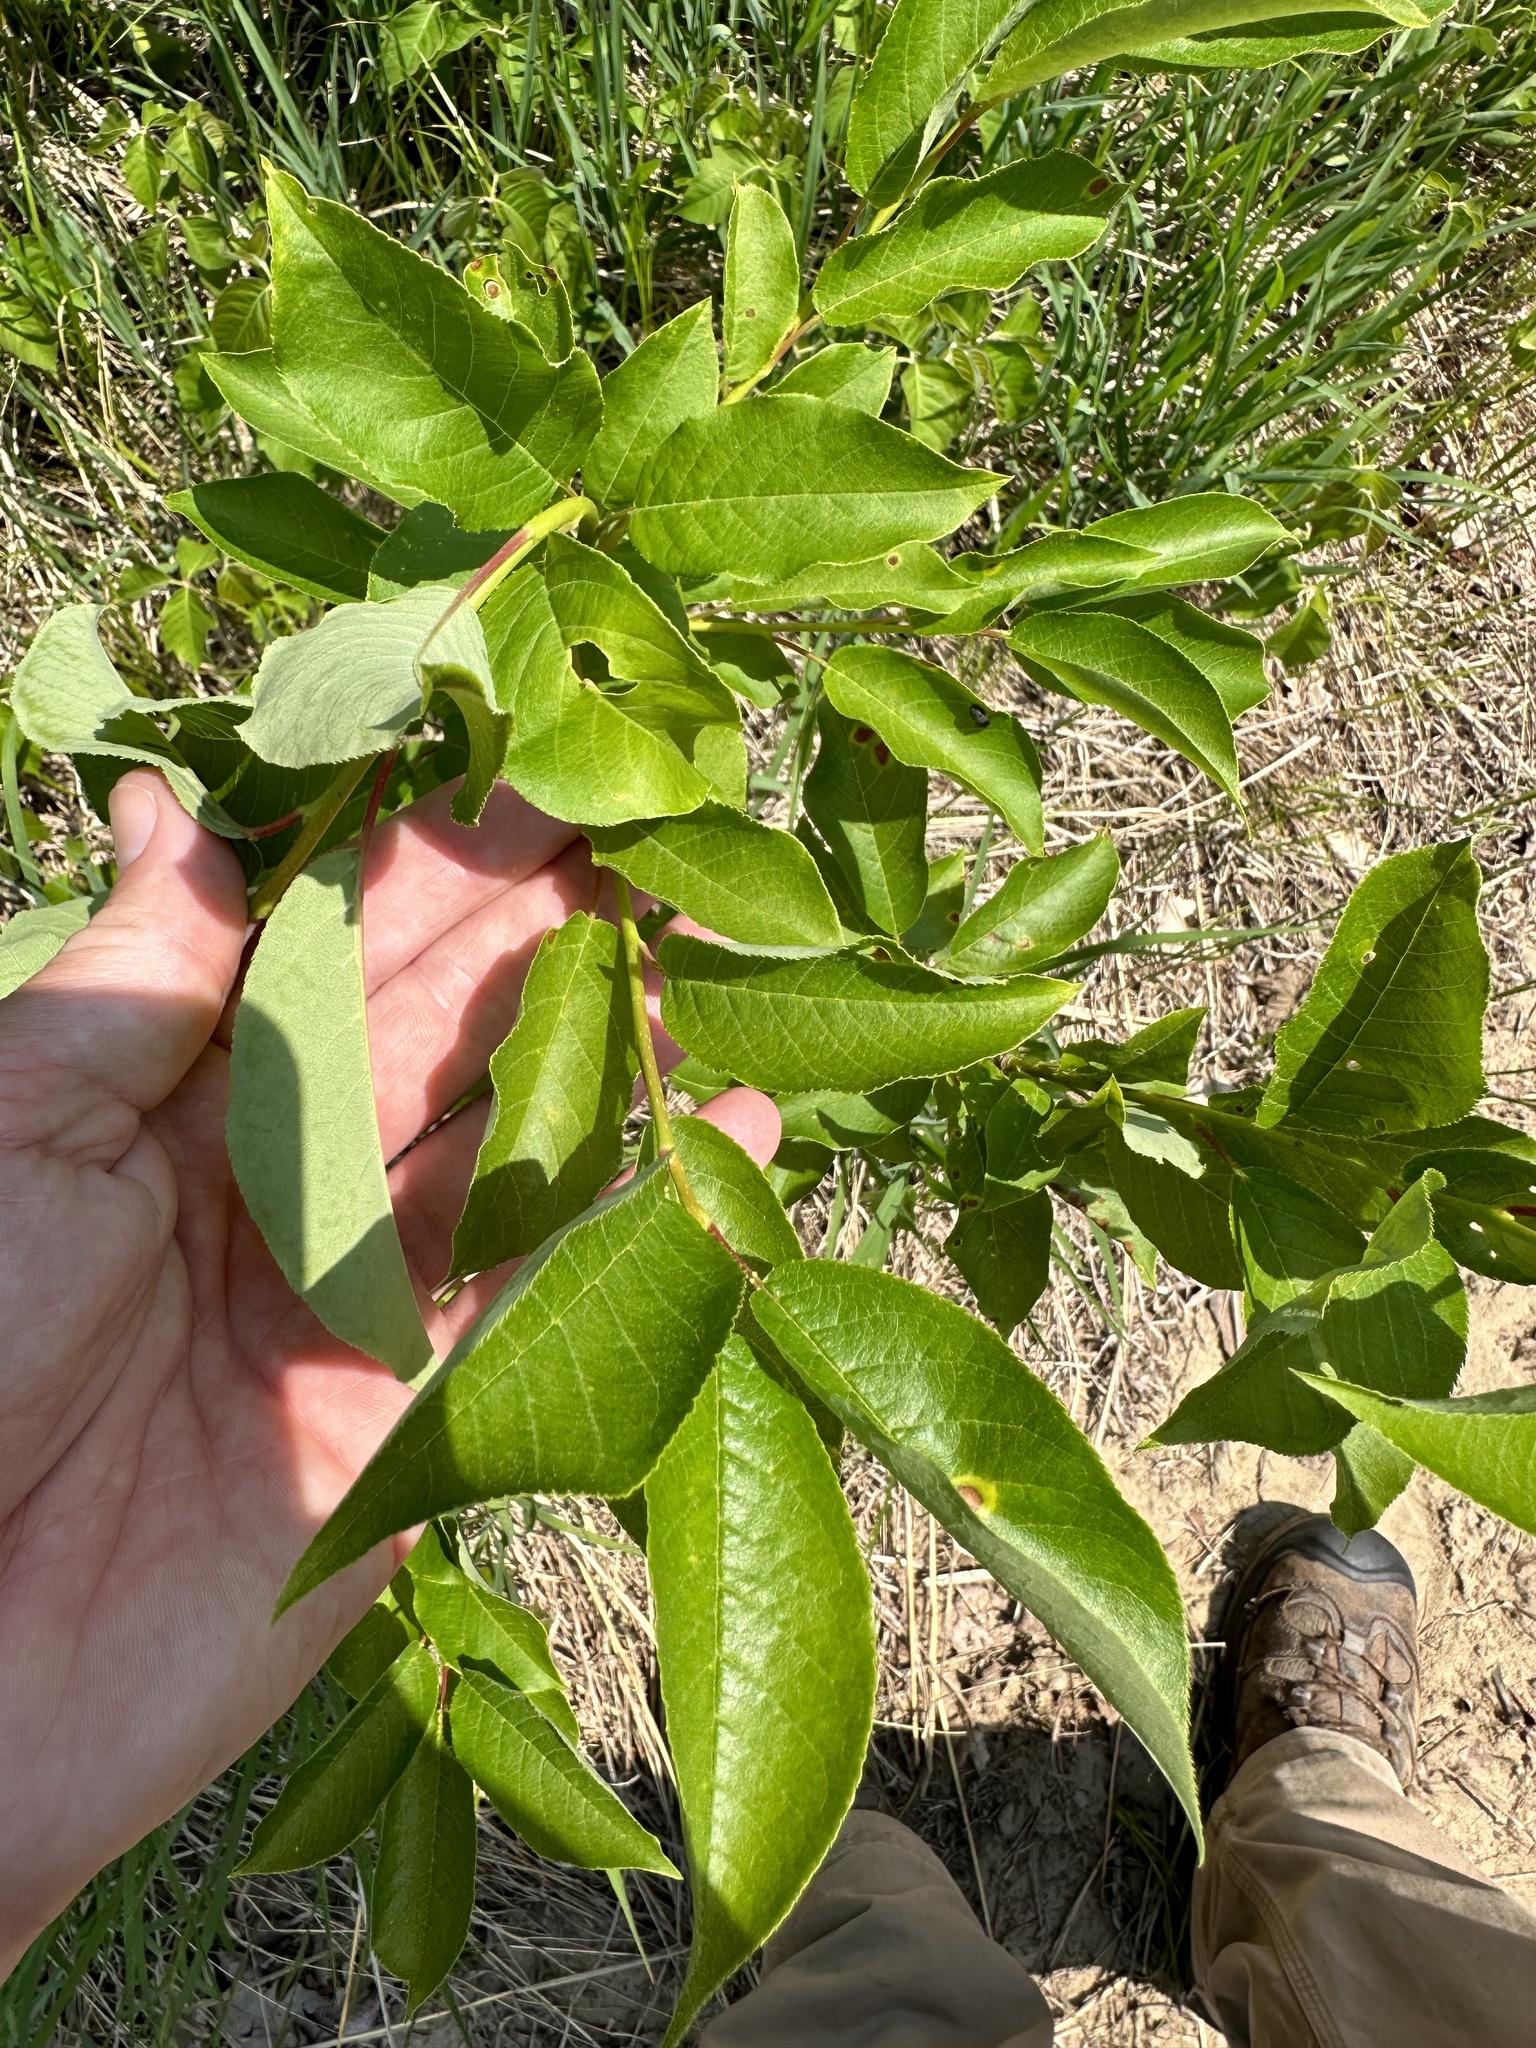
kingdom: Plantae
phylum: Tracheophyta
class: Magnoliopsida
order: Rosales
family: Rosaceae
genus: Prunus
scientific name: Prunus virginiana
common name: Chokecherry
